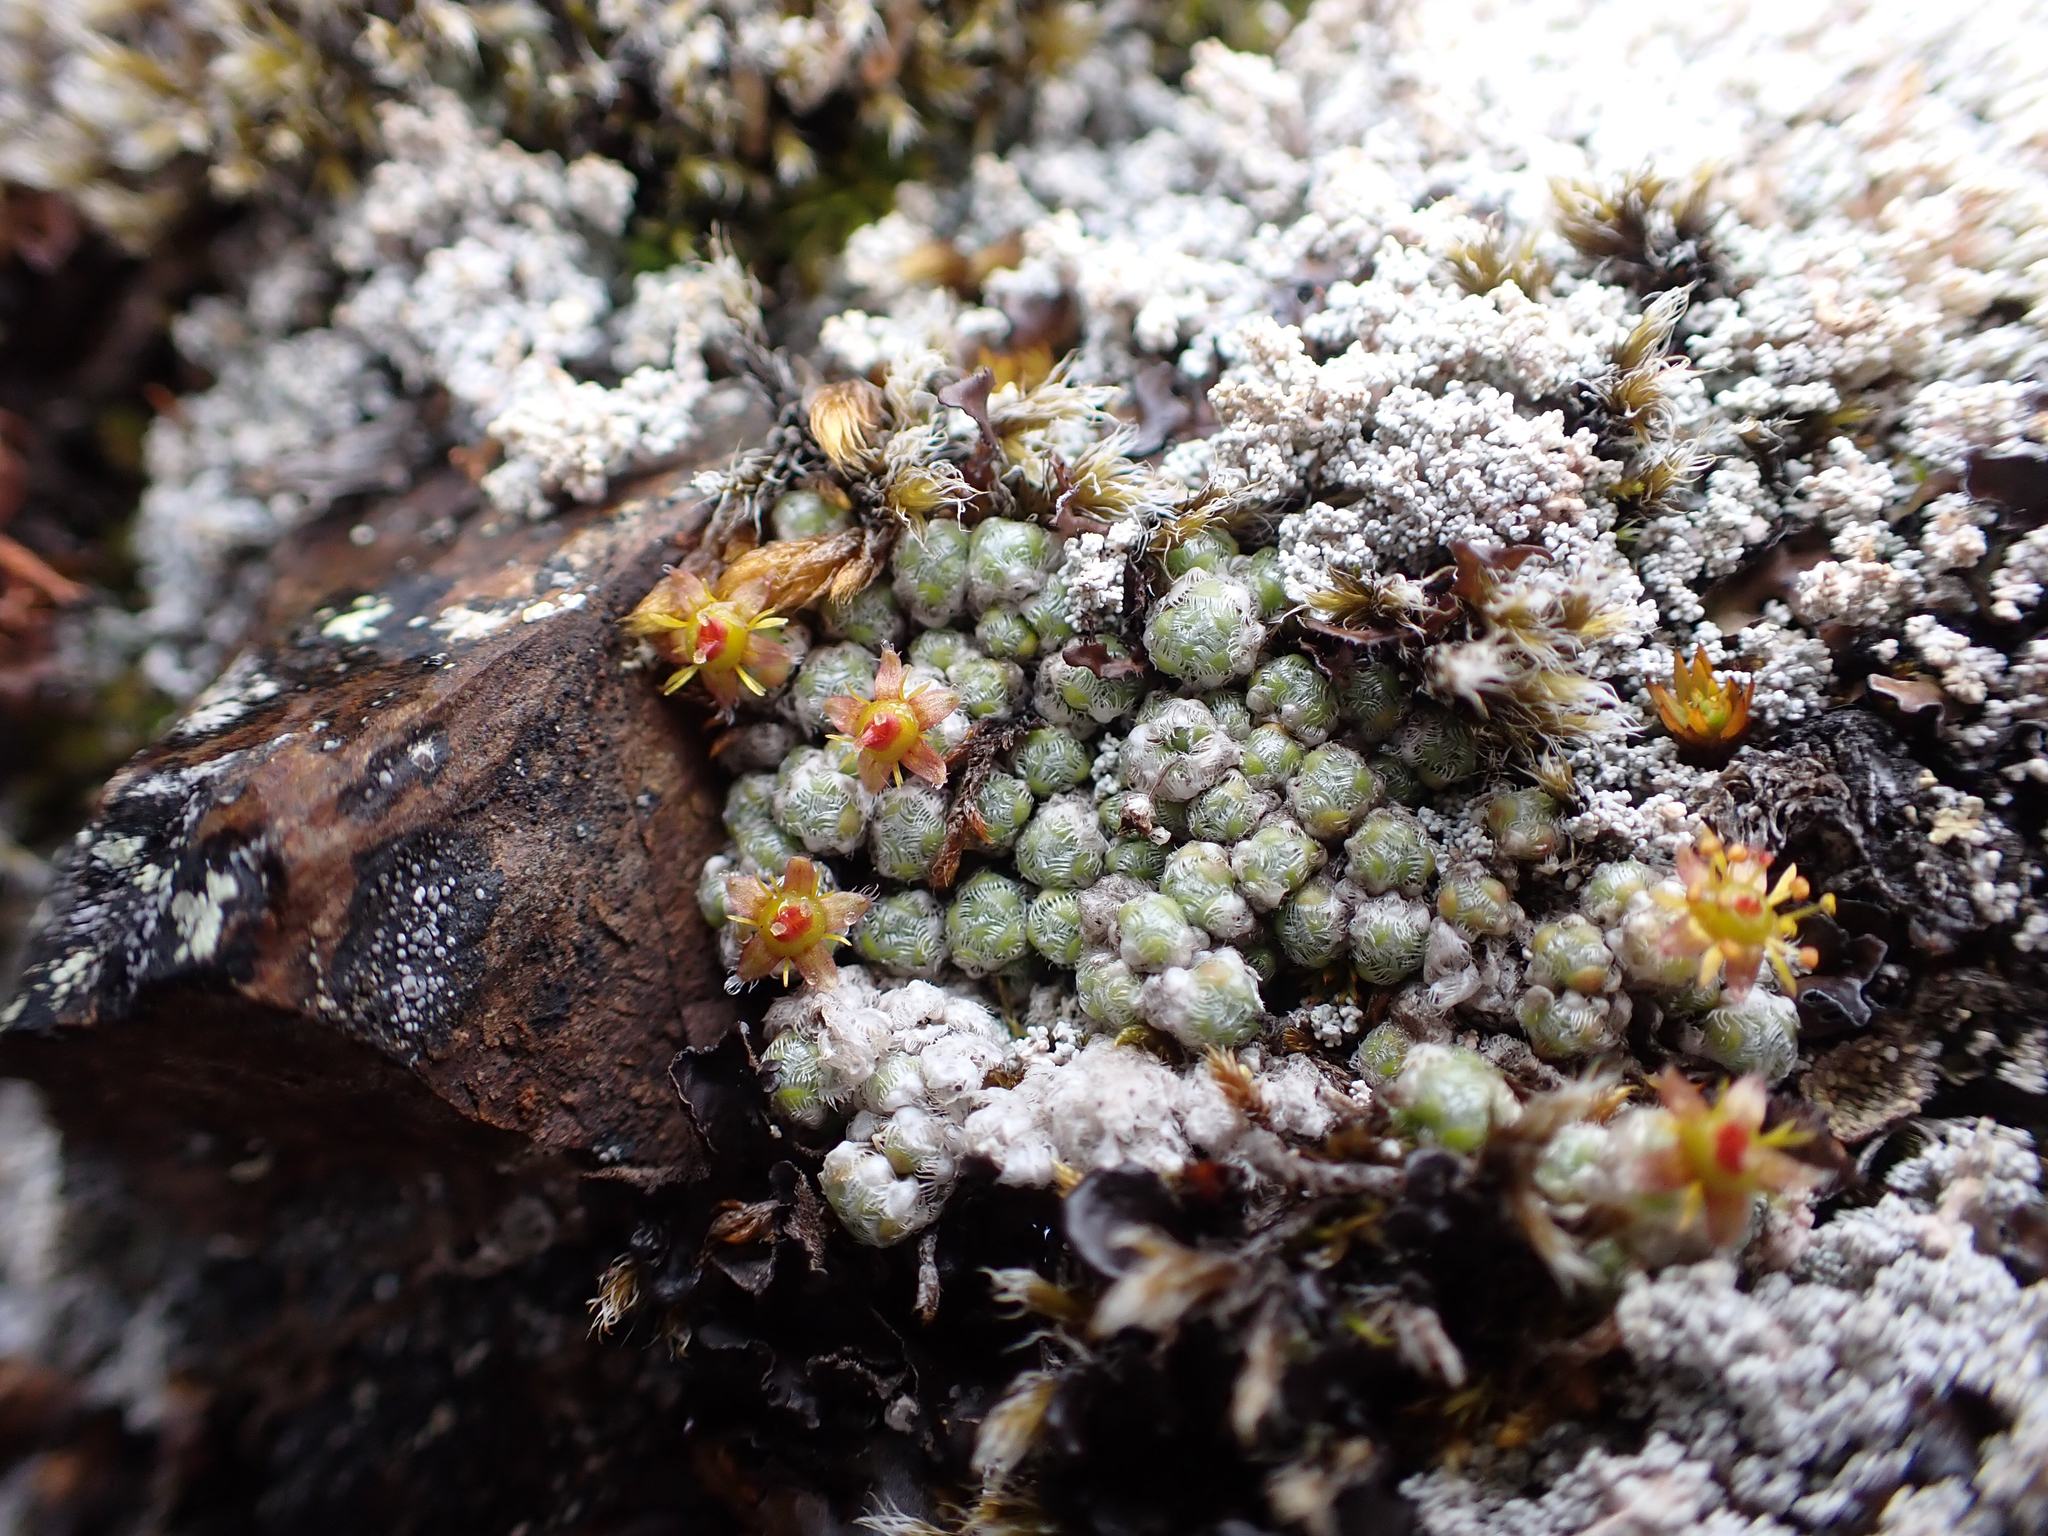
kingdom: Plantae
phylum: Tracheophyta
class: Magnoliopsida
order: Saxifragales
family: Saxifragaceae
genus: Saxifraga
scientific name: Saxifraga eschscholtzii
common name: Eschscholtz's saxifrage
